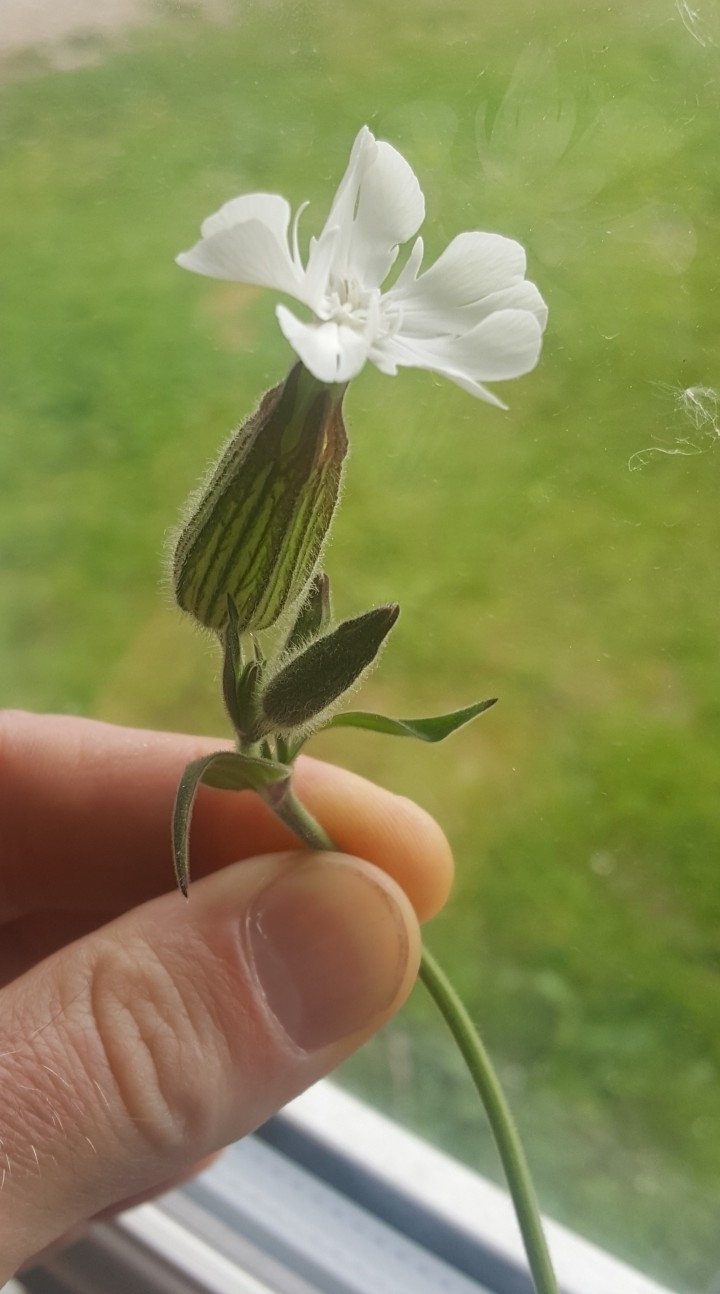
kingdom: Plantae
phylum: Tracheophyta
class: Magnoliopsida
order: Caryophyllales
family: Caryophyllaceae
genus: Silene
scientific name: Silene latifolia
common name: White campion
